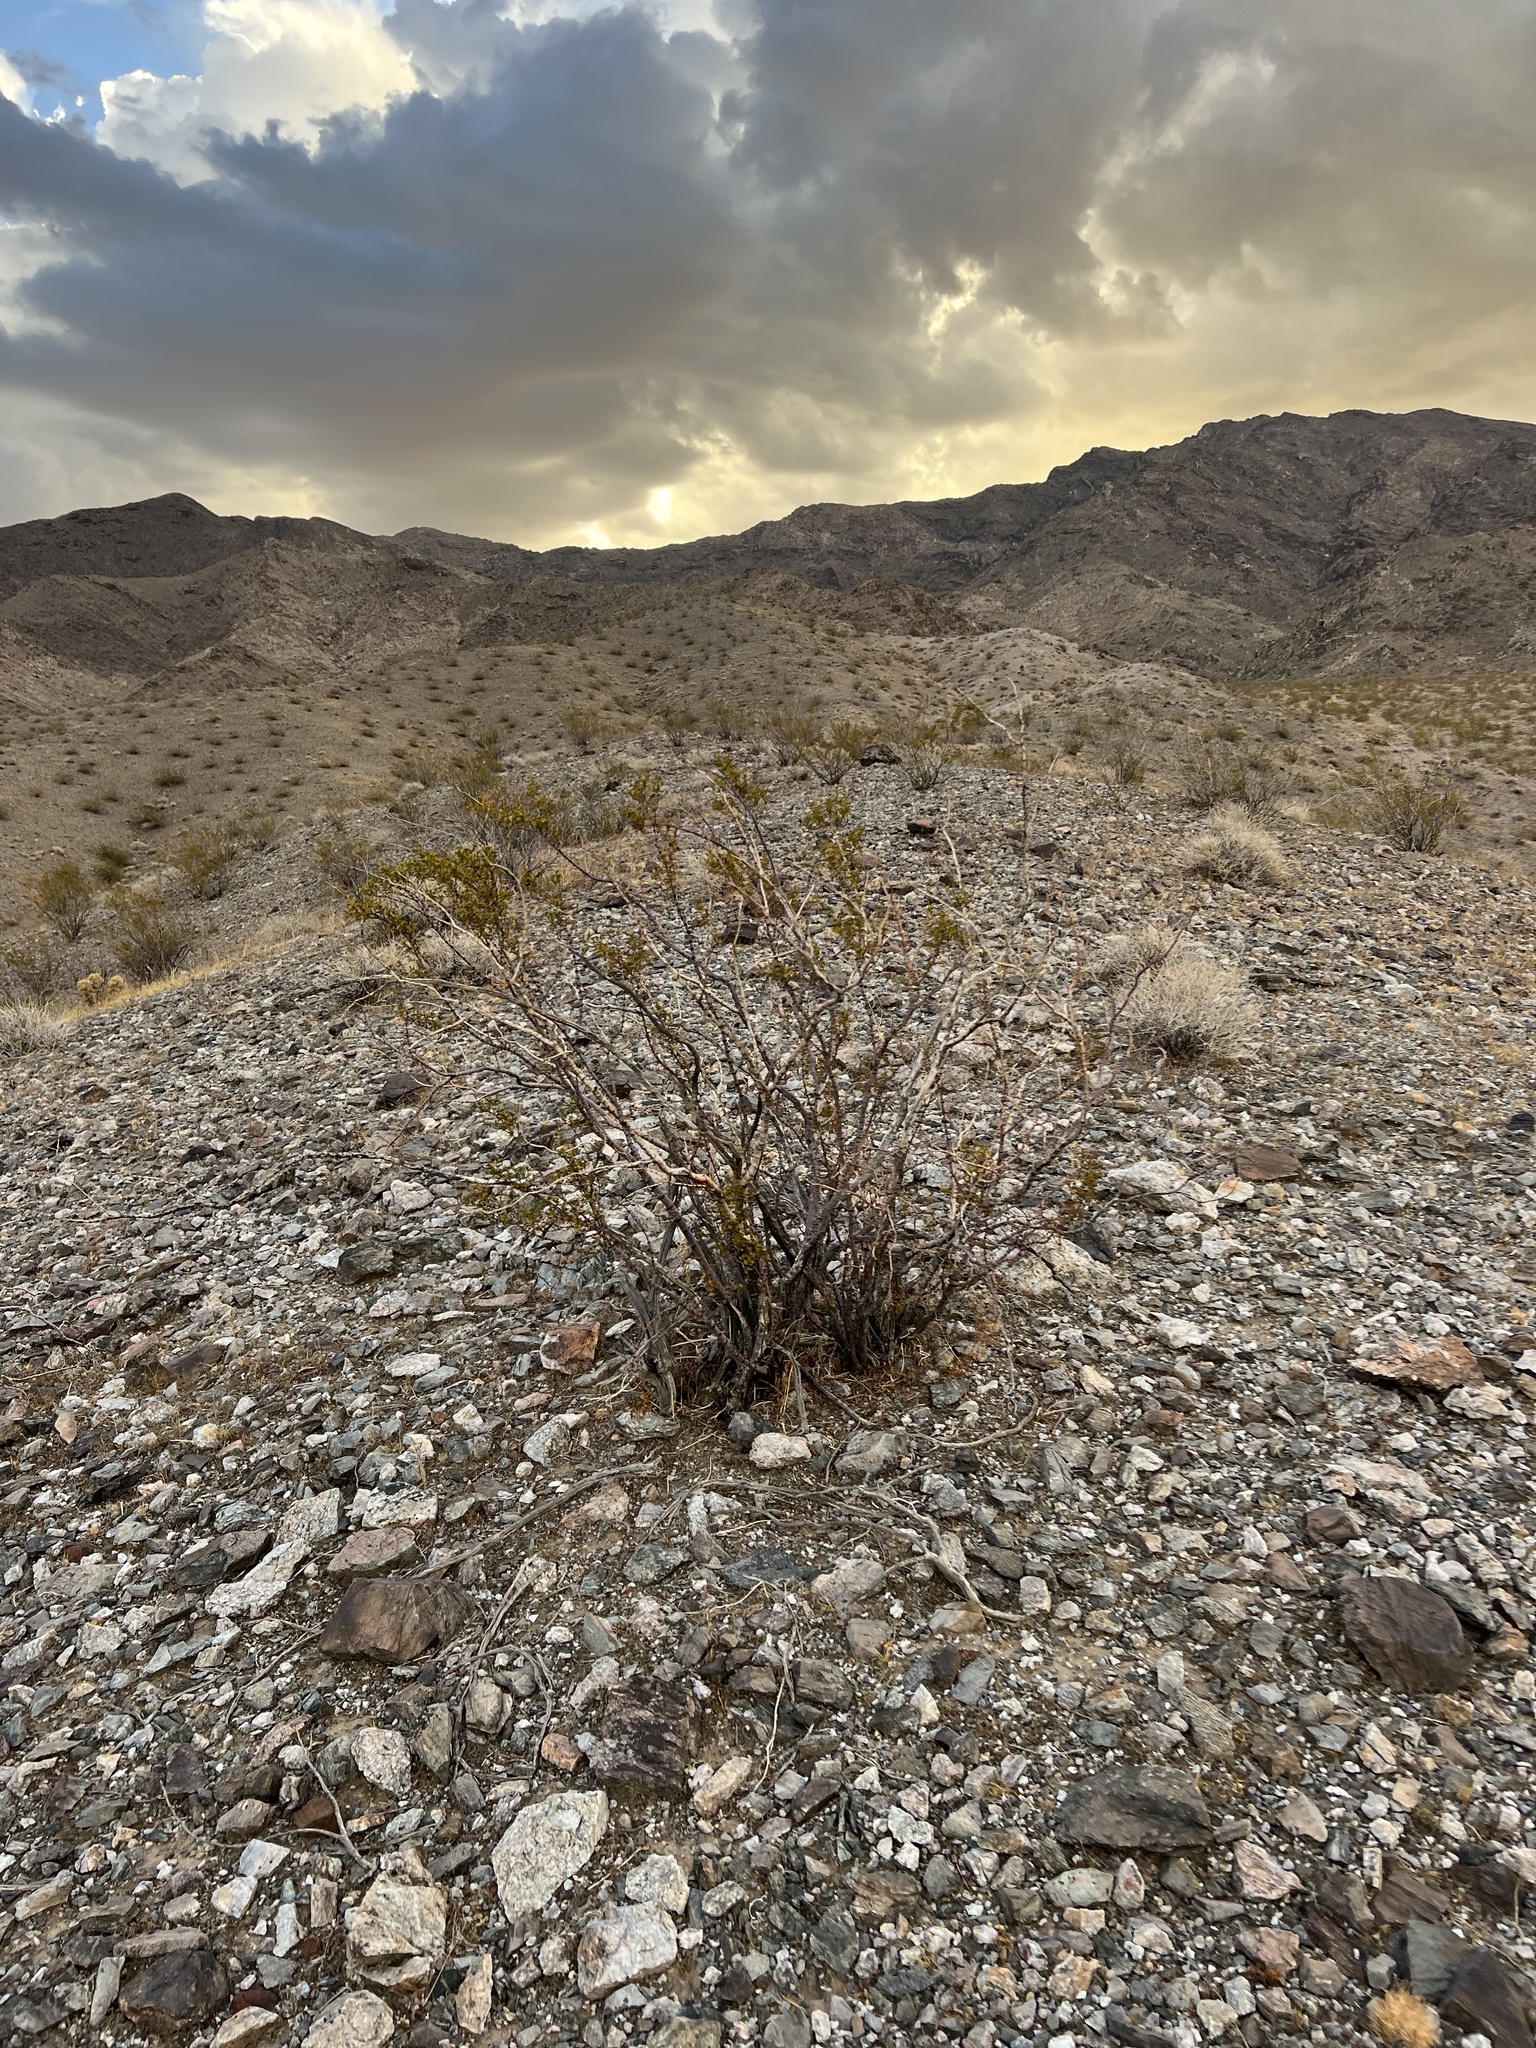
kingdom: Plantae
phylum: Tracheophyta
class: Magnoliopsida
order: Zygophyllales
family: Zygophyllaceae
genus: Larrea
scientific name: Larrea tridentata
